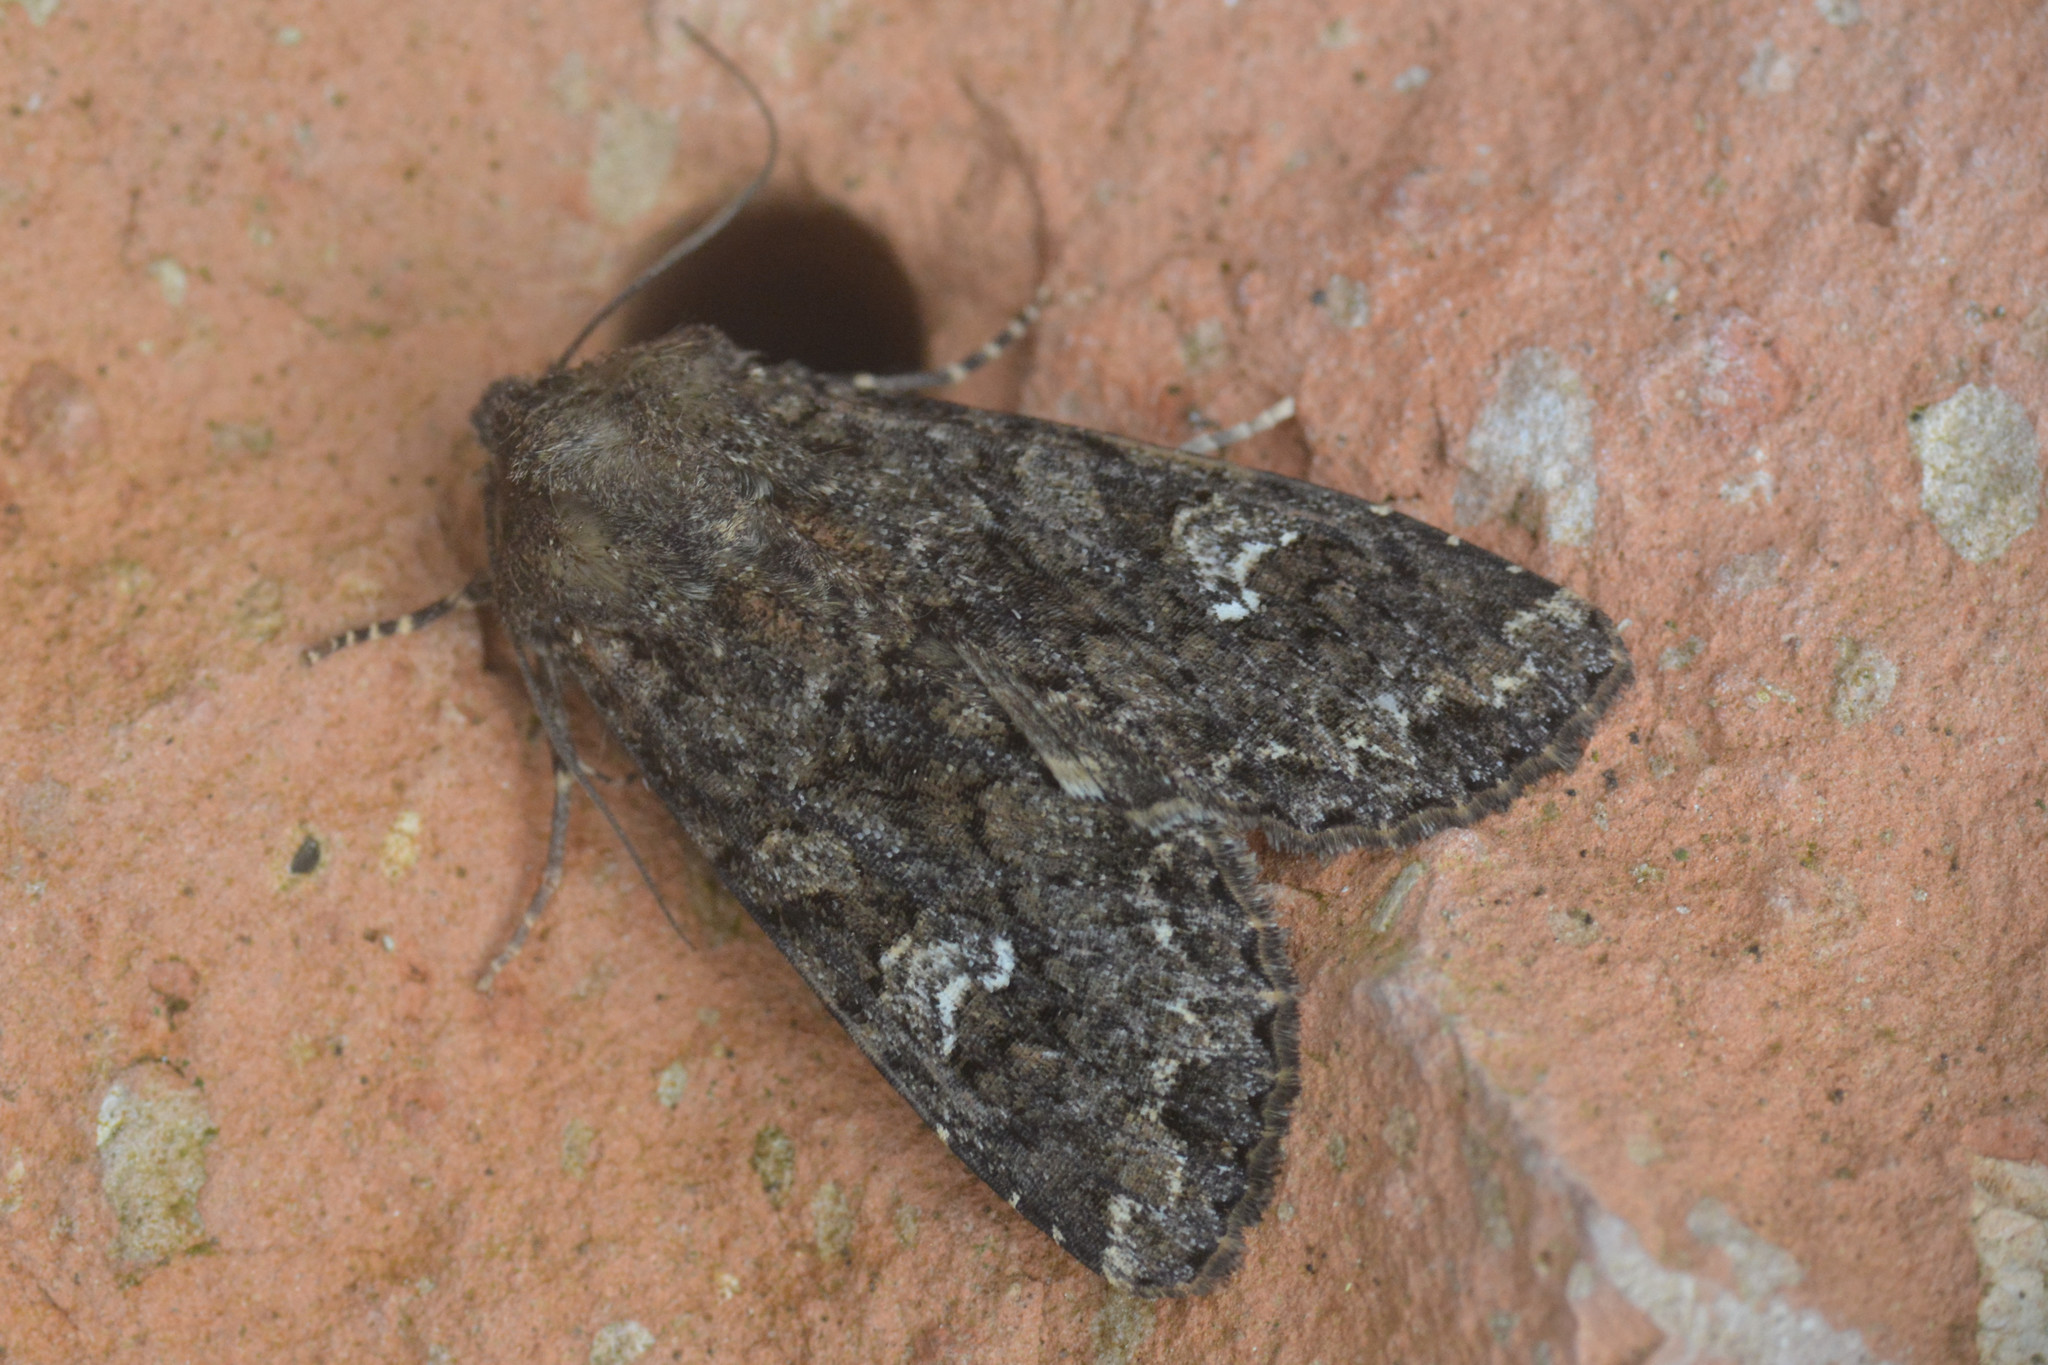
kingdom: Animalia
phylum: Arthropoda
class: Insecta
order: Lepidoptera
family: Noctuidae
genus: Mamestra
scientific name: Mamestra brassicae
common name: Cabbage moth
